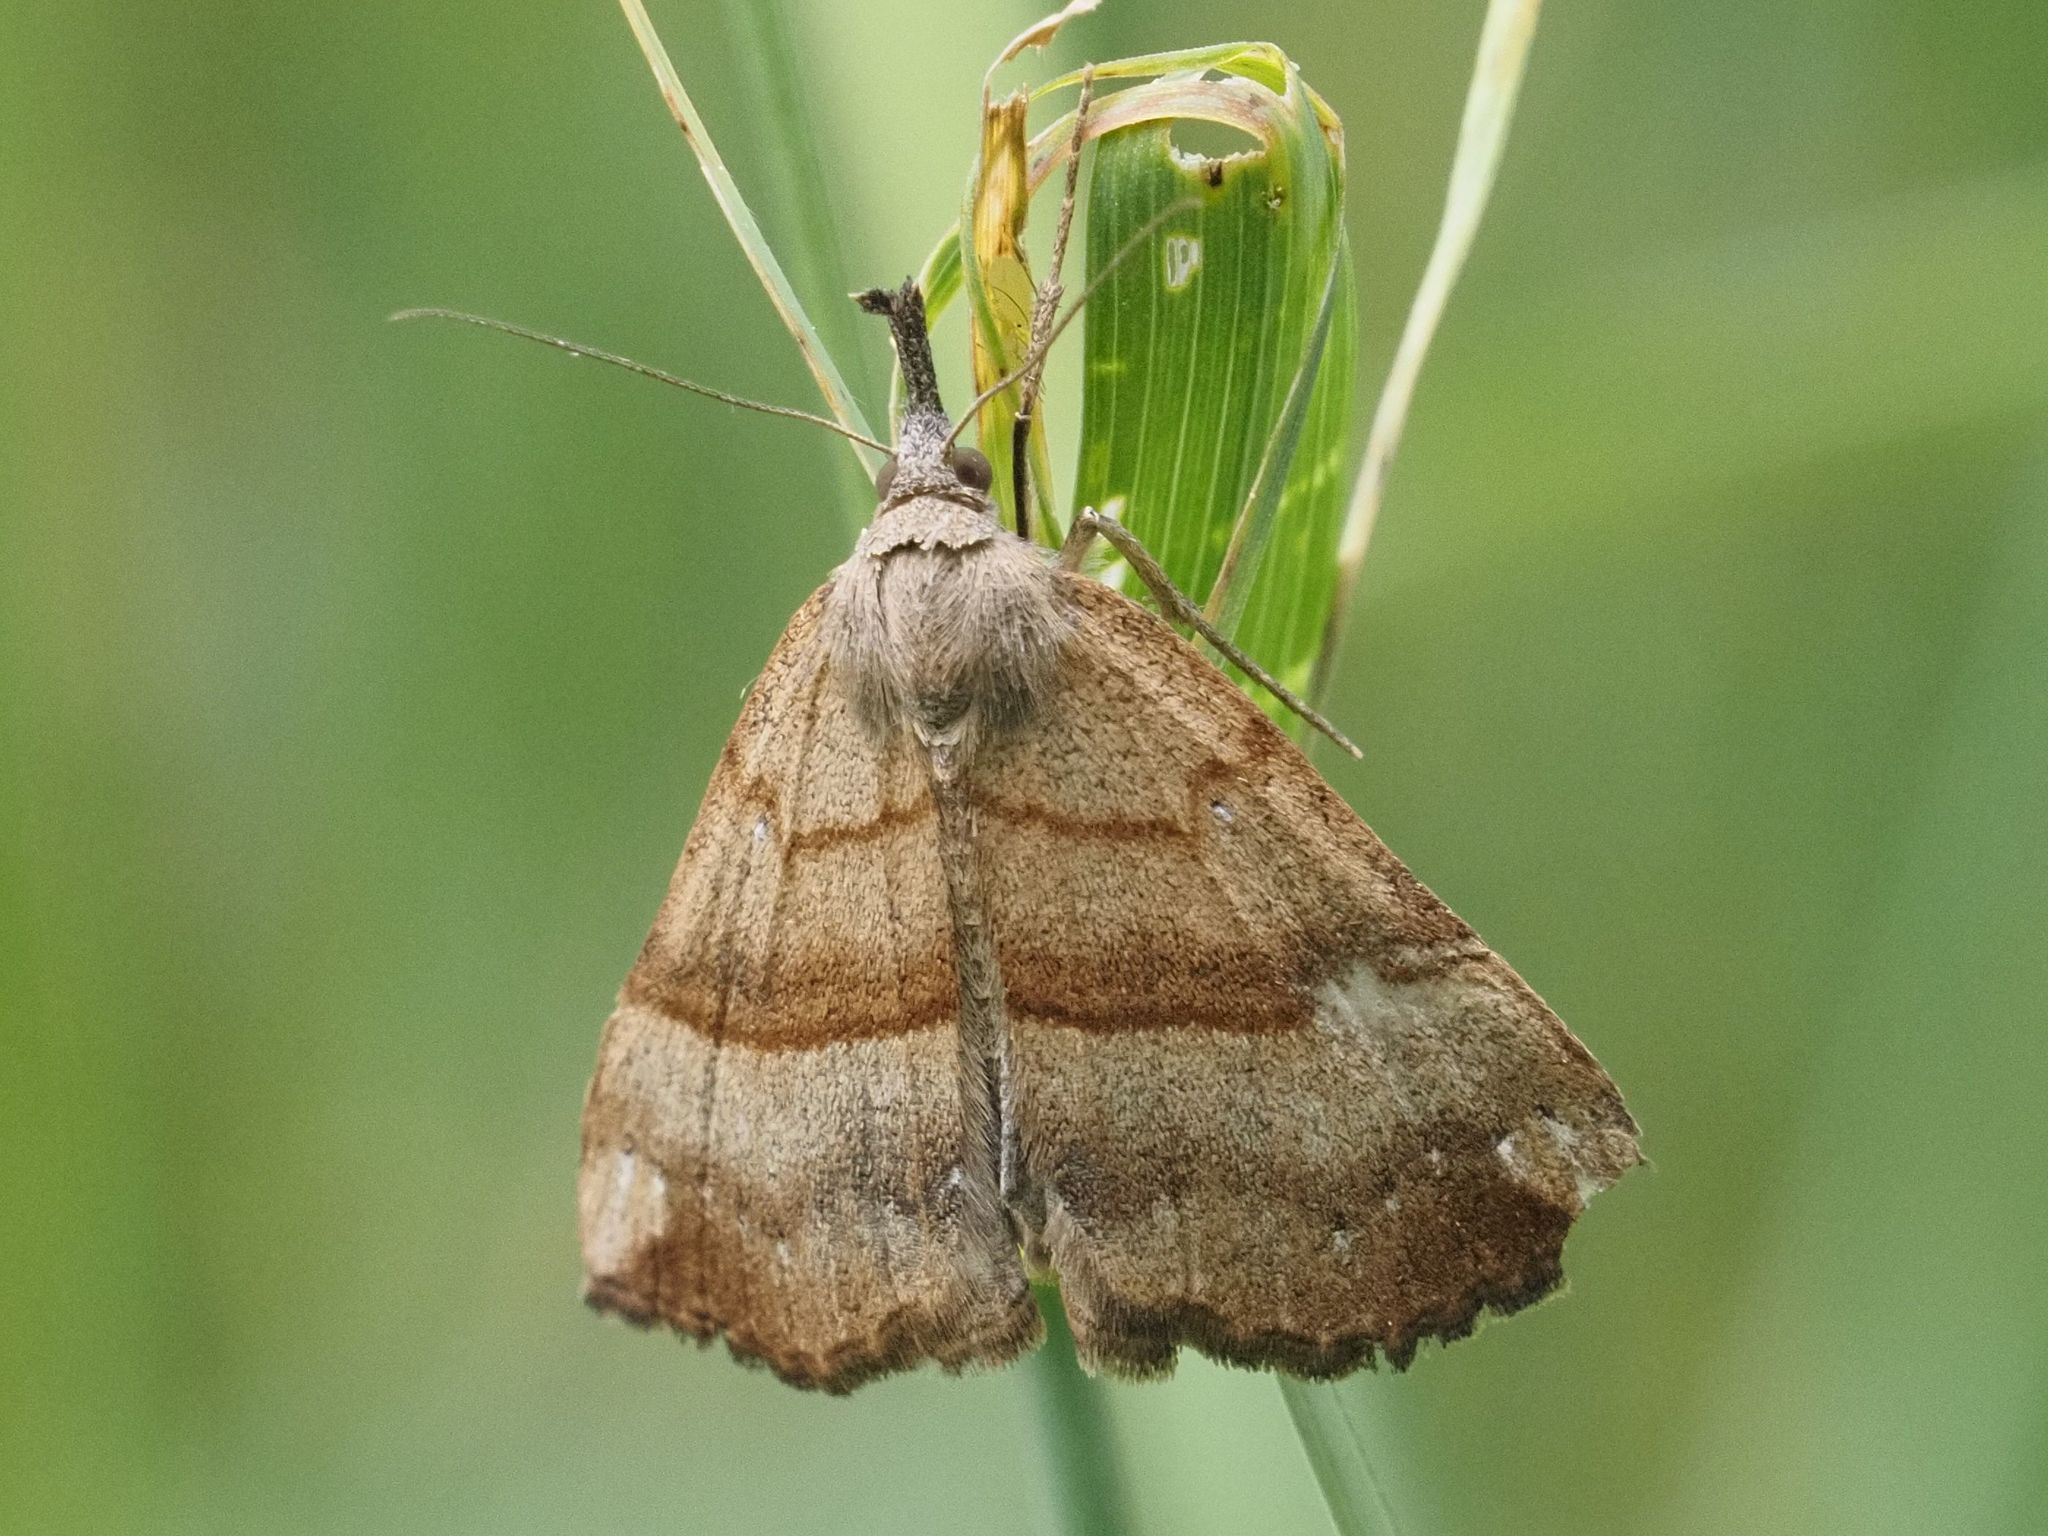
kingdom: Animalia
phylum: Arthropoda
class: Insecta
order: Lepidoptera
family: Erebidae
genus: Hypena
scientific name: Hypena proboscidalis
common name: Snout
